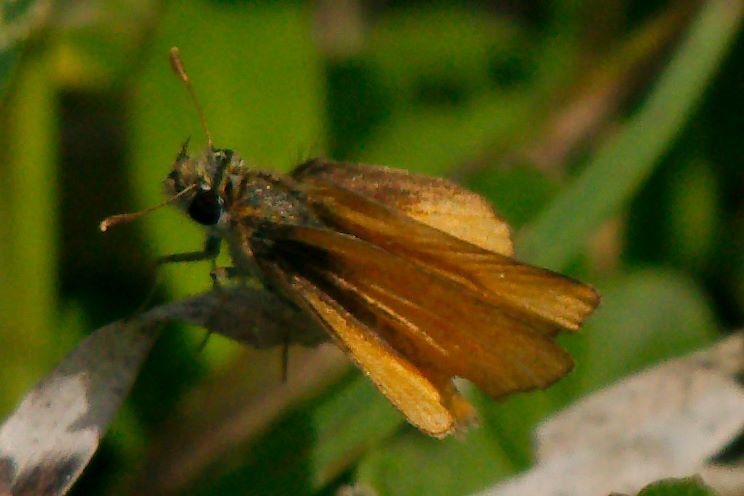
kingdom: Animalia
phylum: Arthropoda
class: Insecta
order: Lepidoptera
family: Hesperiidae
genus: Copaeodes
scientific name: Copaeodes minima
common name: Southern skipperling
